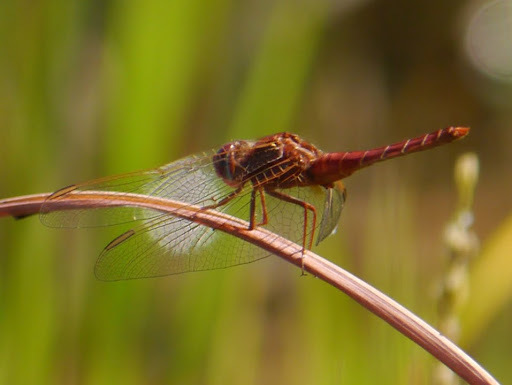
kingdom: Animalia
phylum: Arthropoda
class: Insecta
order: Odonata
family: Libellulidae
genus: Crocothemis
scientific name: Crocothemis erythraea
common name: Scarlet dragonfly
